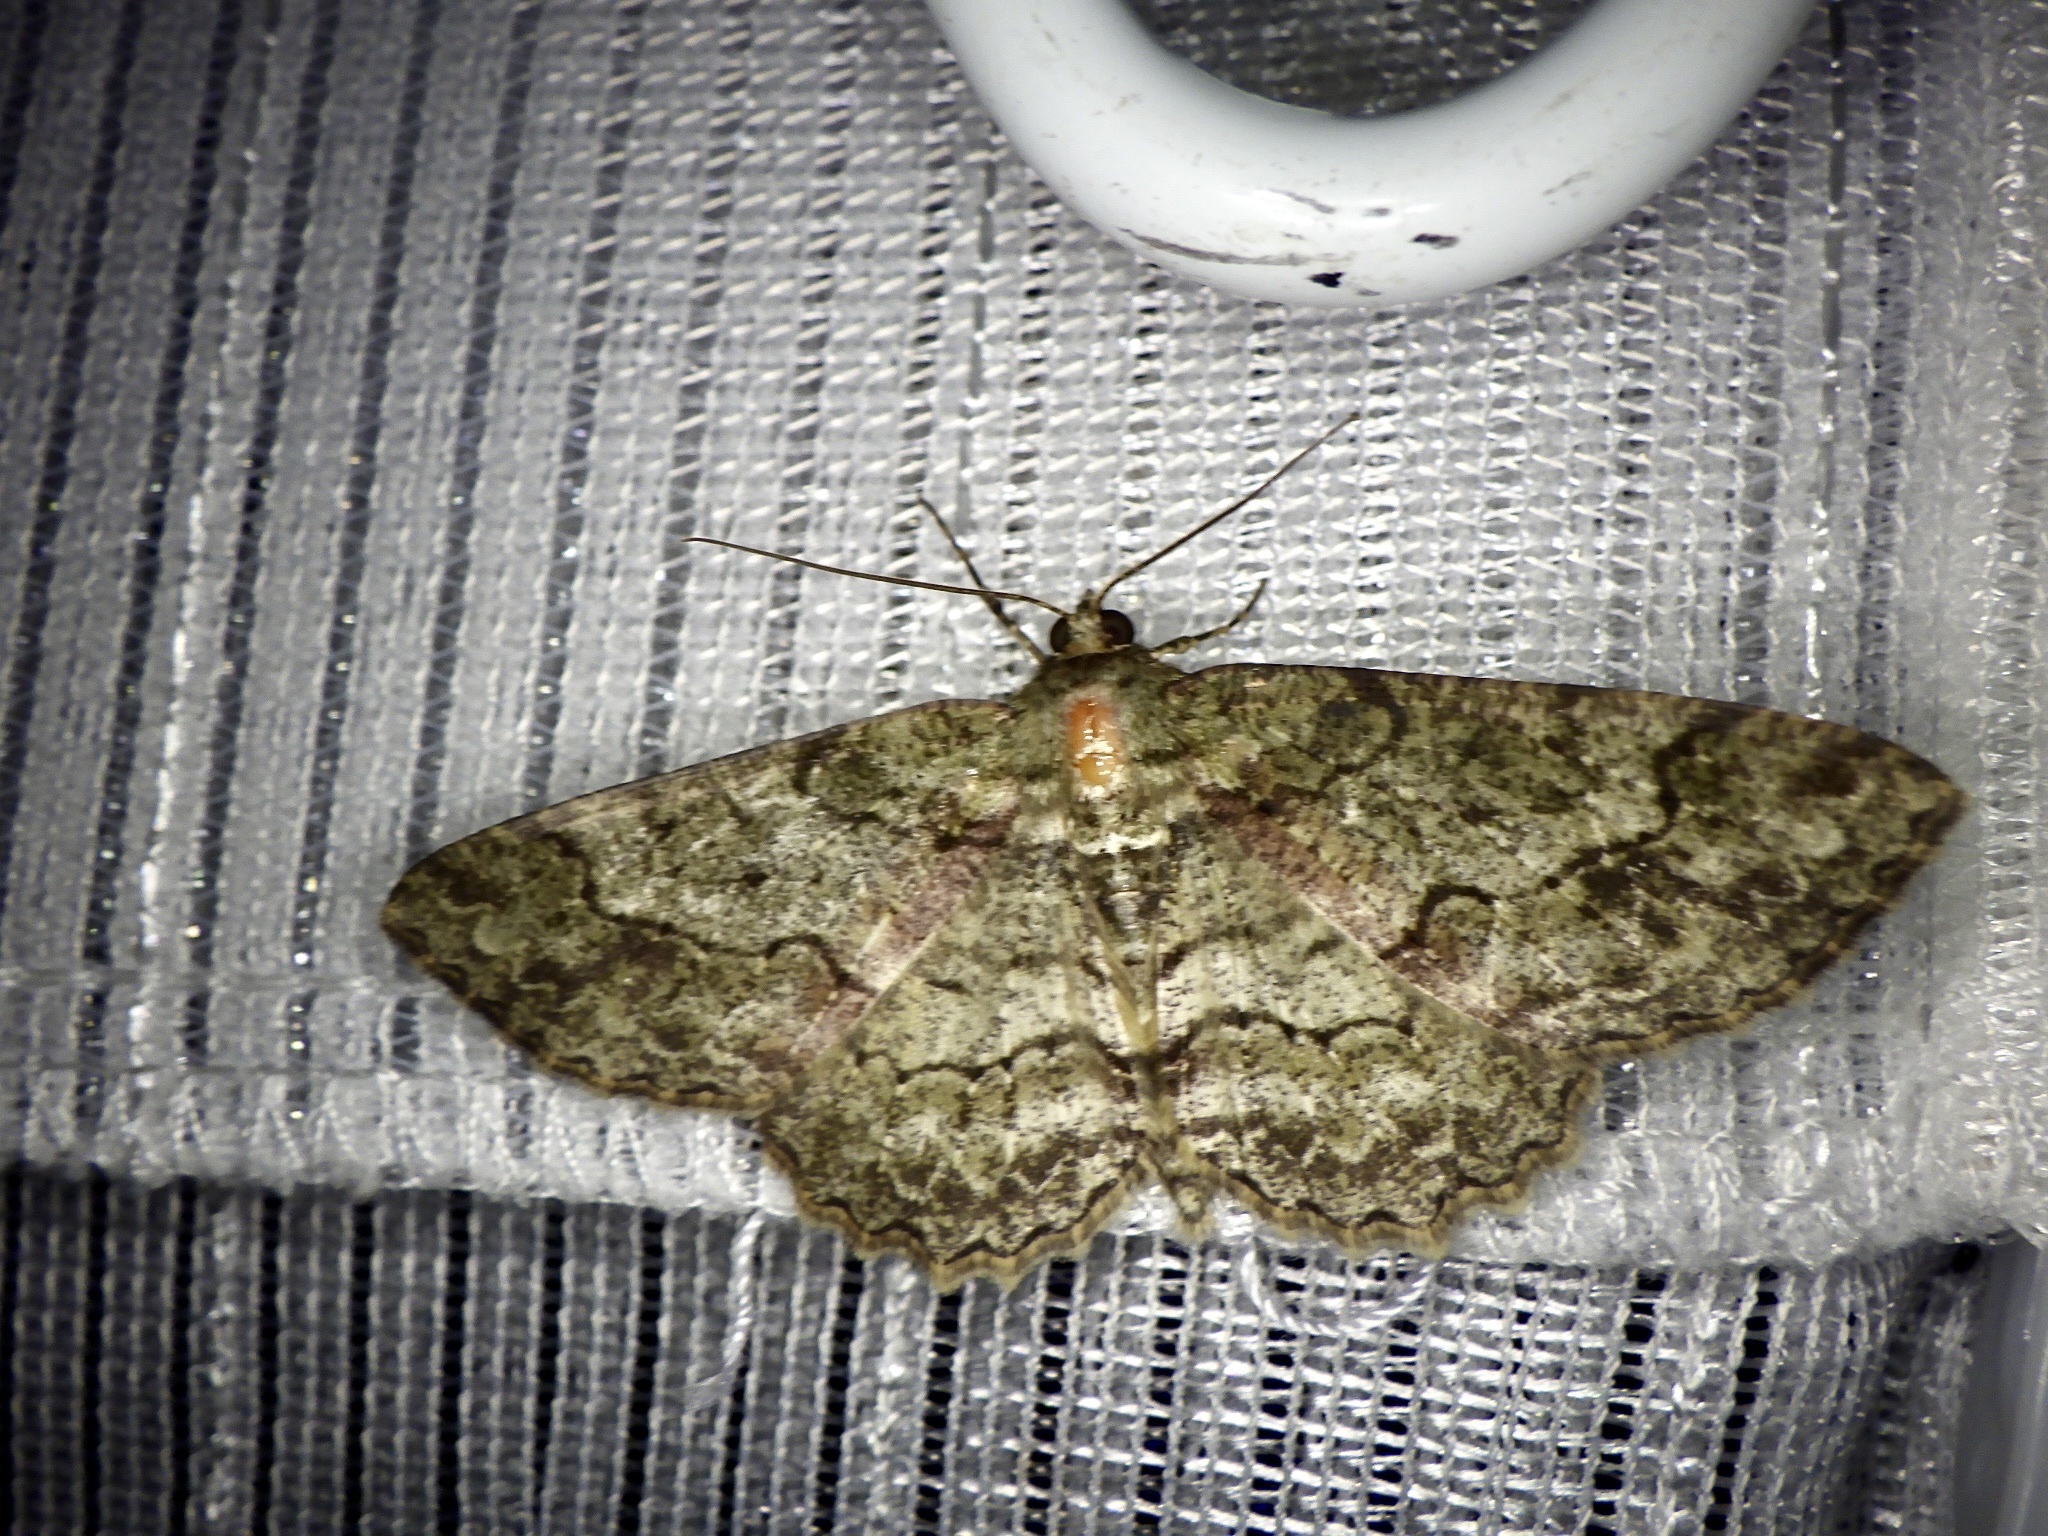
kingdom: Animalia
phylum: Arthropoda
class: Insecta
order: Lepidoptera
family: Geometridae
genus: Paradarisa
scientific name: Paradarisa chloauges
